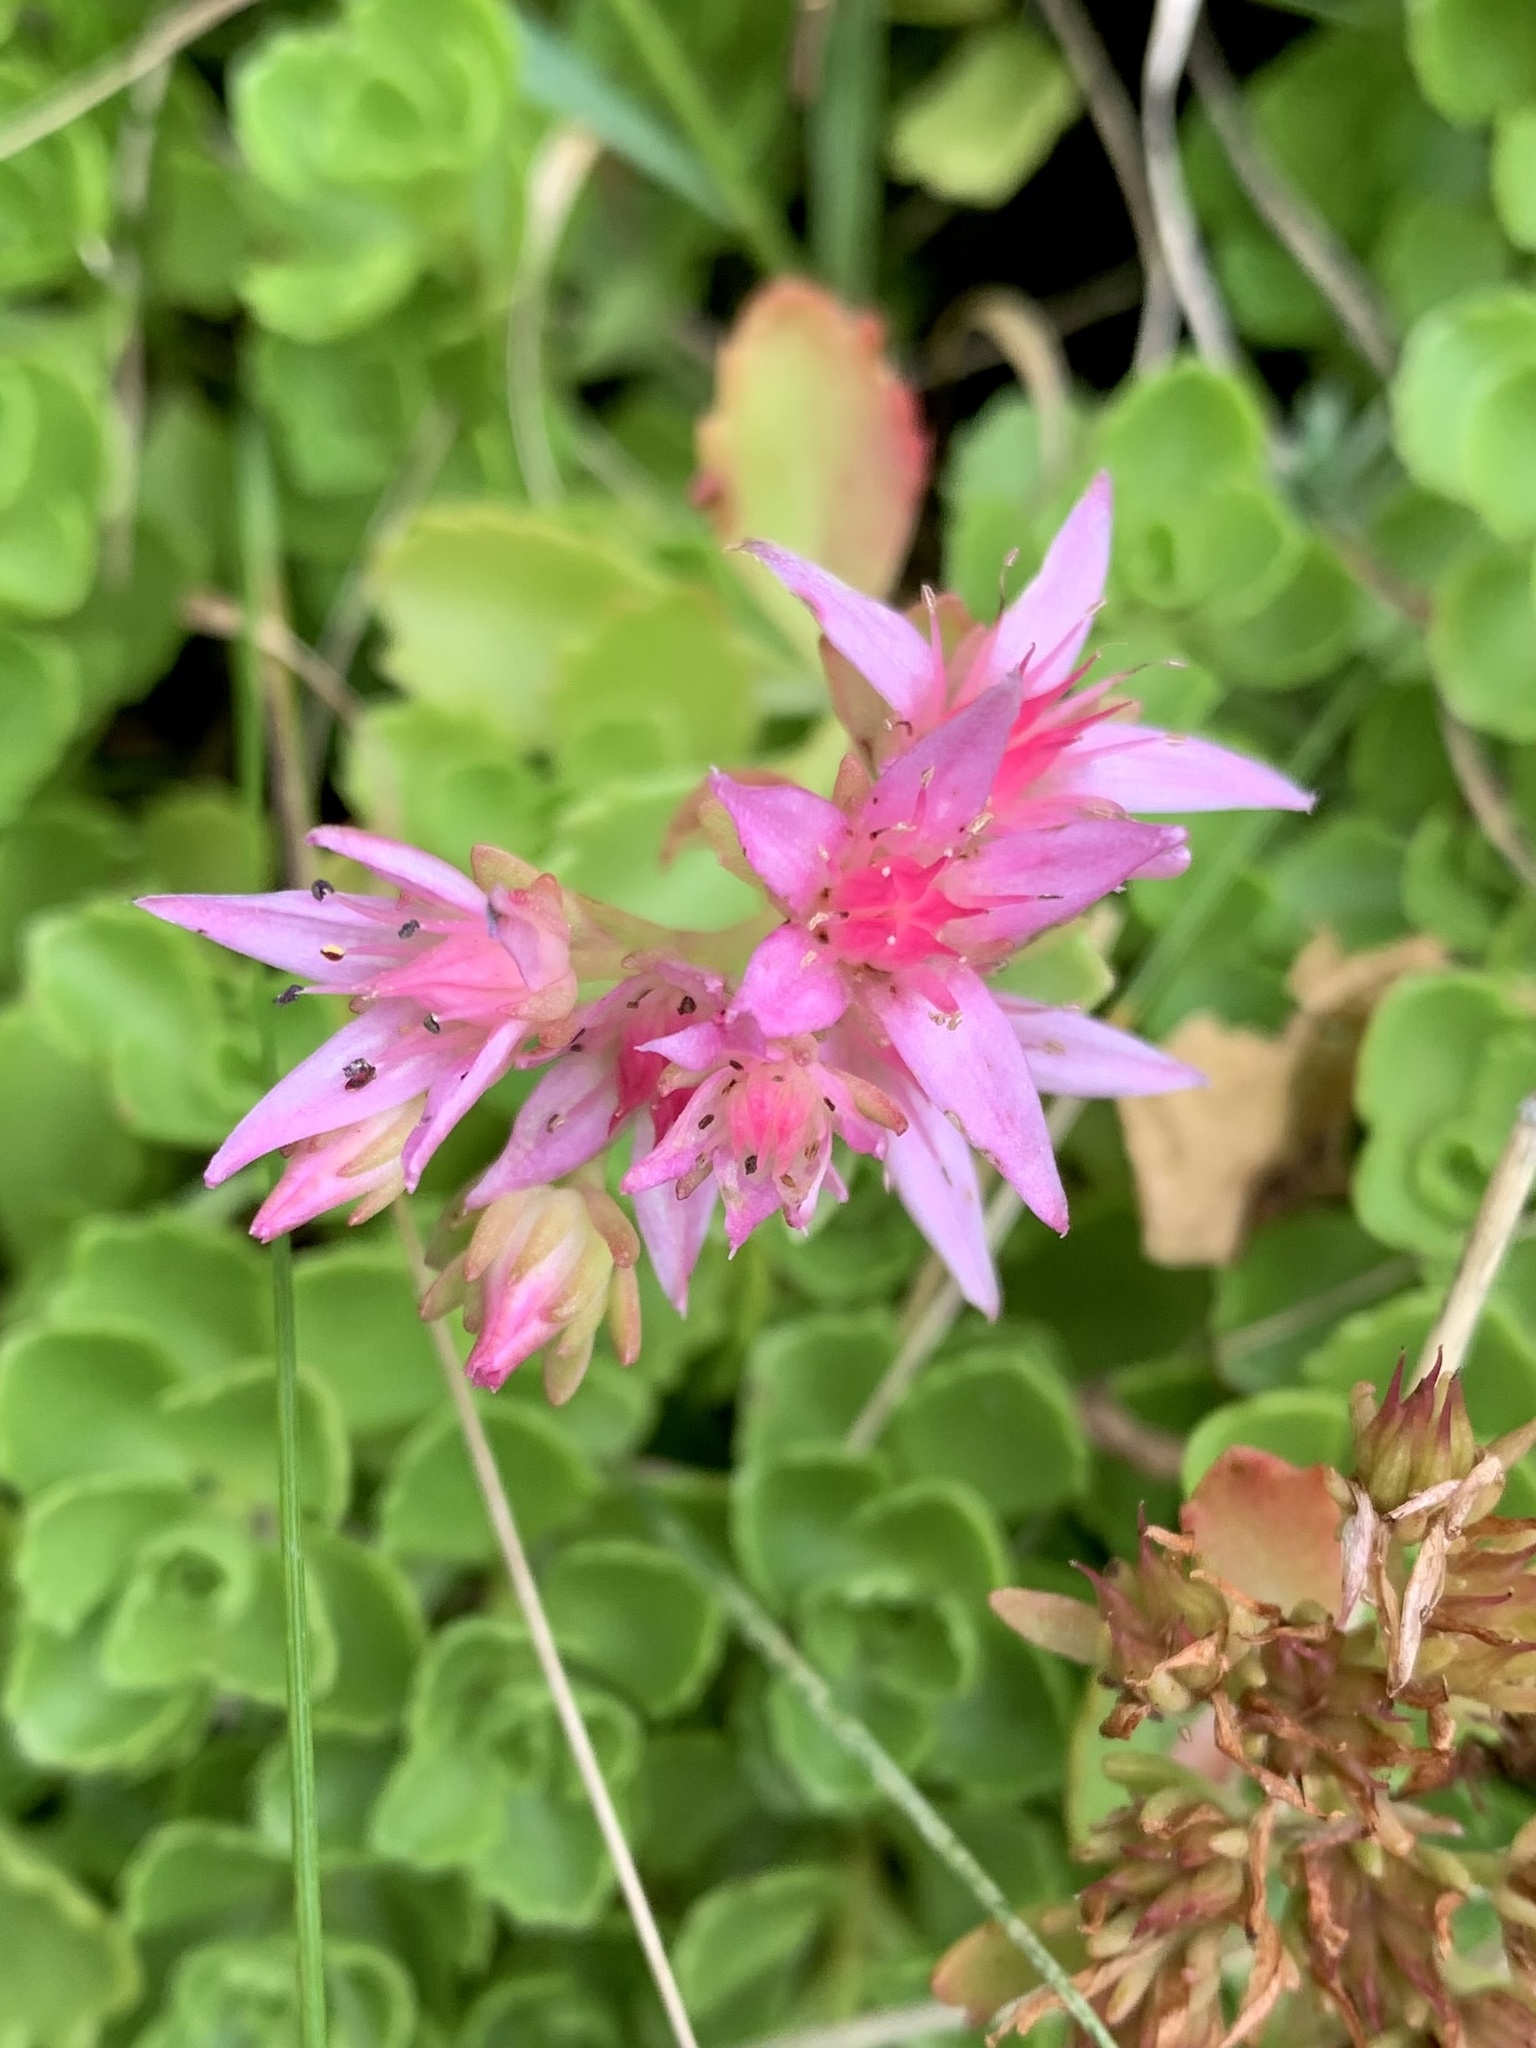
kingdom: Plantae
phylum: Tracheophyta
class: Magnoliopsida
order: Saxifragales
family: Crassulaceae
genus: Phedimus
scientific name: Phedimus spurius
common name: Caucasian stonecrop
